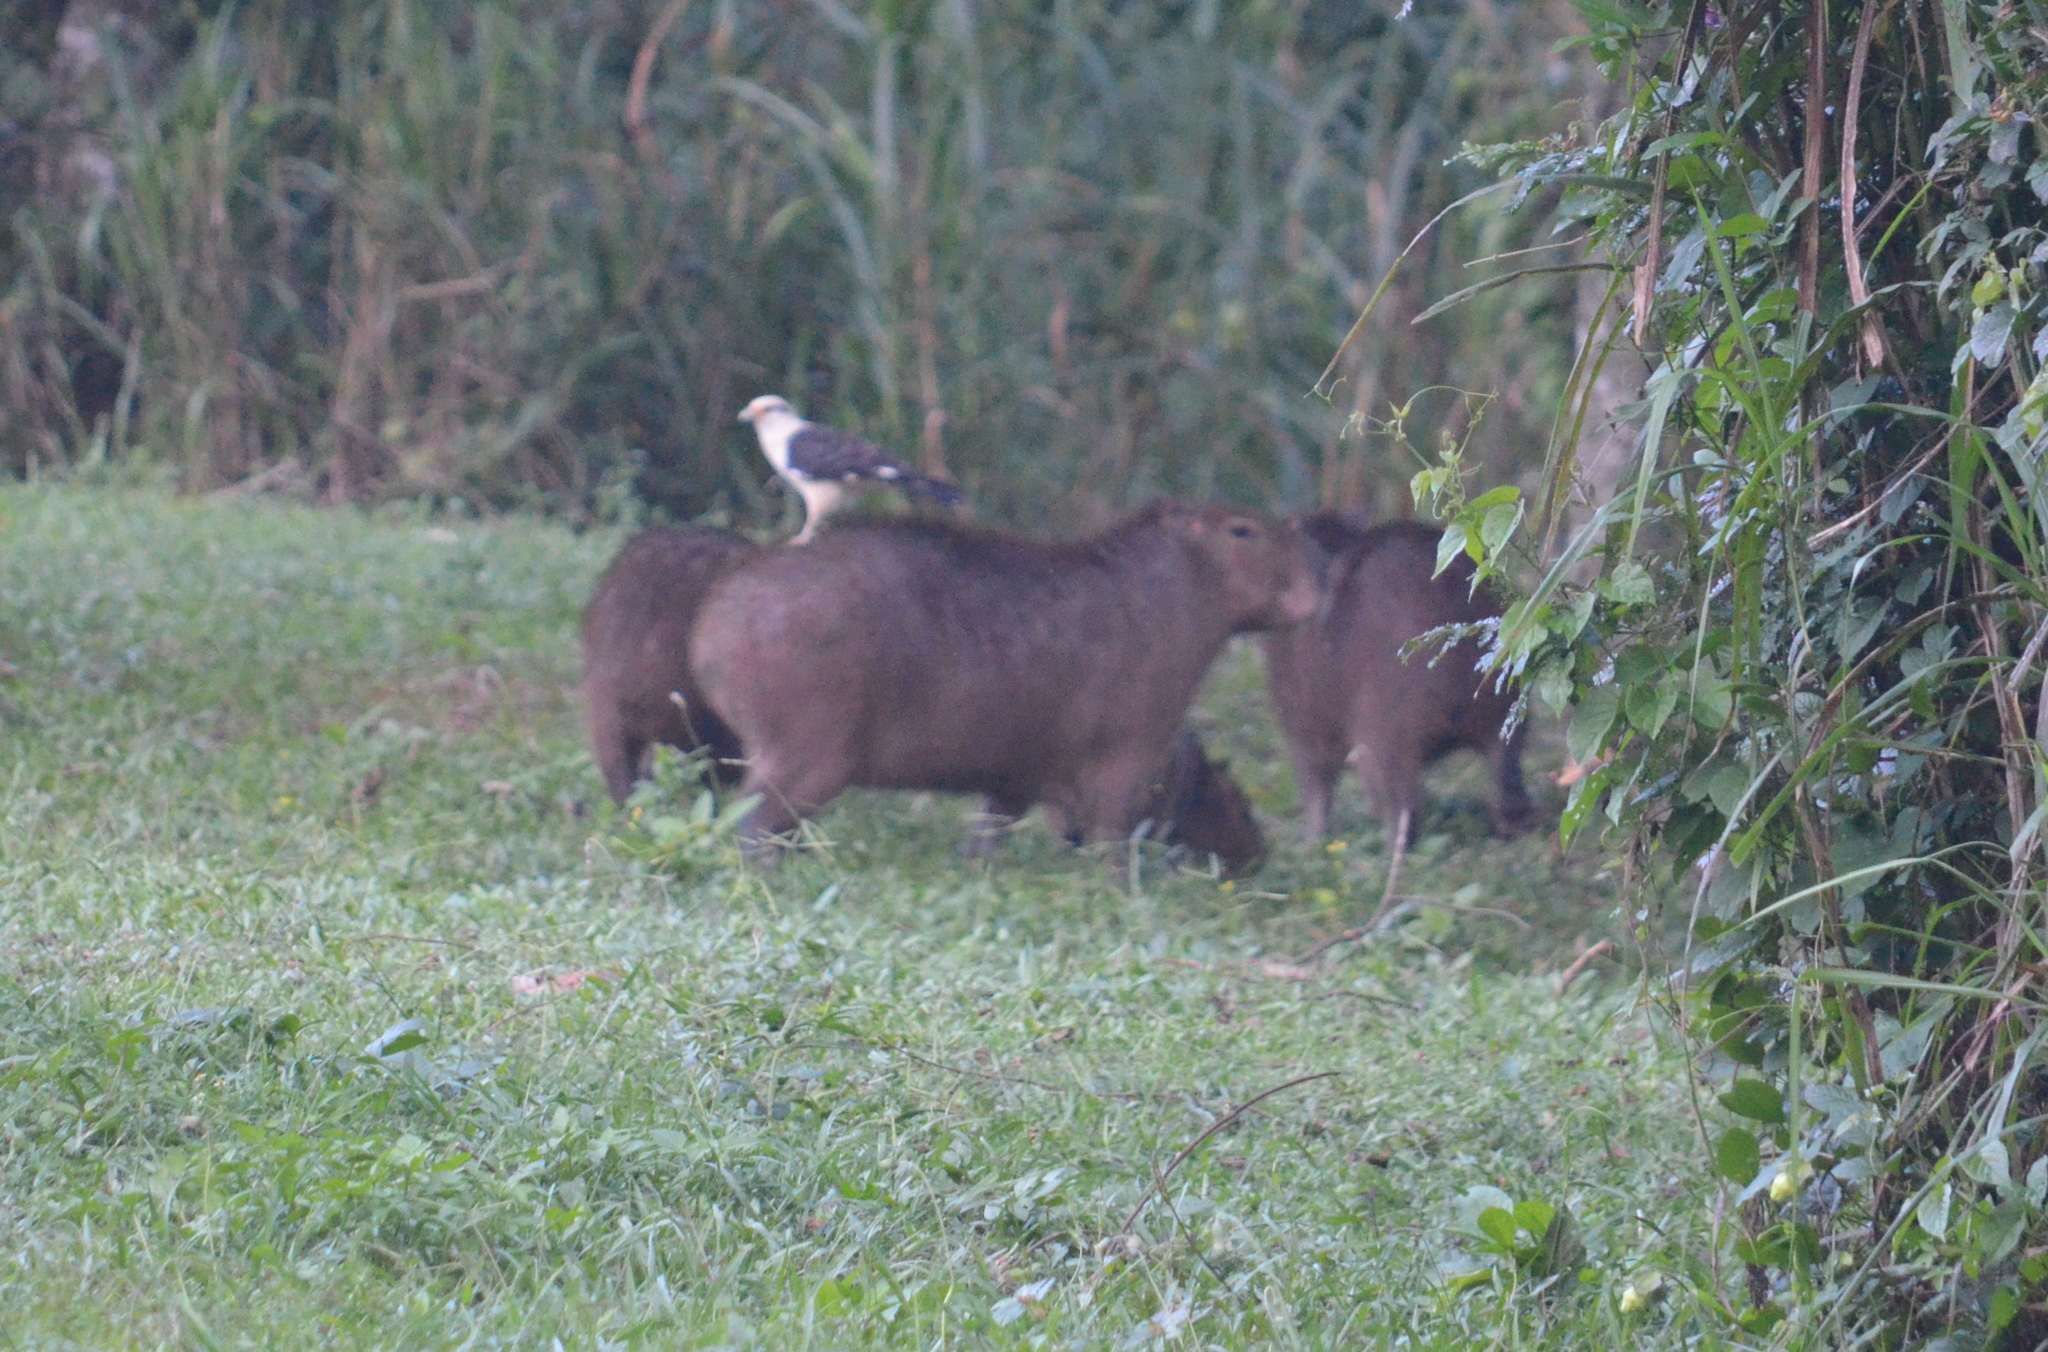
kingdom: Animalia
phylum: Chordata
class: Mammalia
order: Rodentia
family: Caviidae
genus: Hydrochoerus
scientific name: Hydrochoerus hydrochaeris
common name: Capybara
